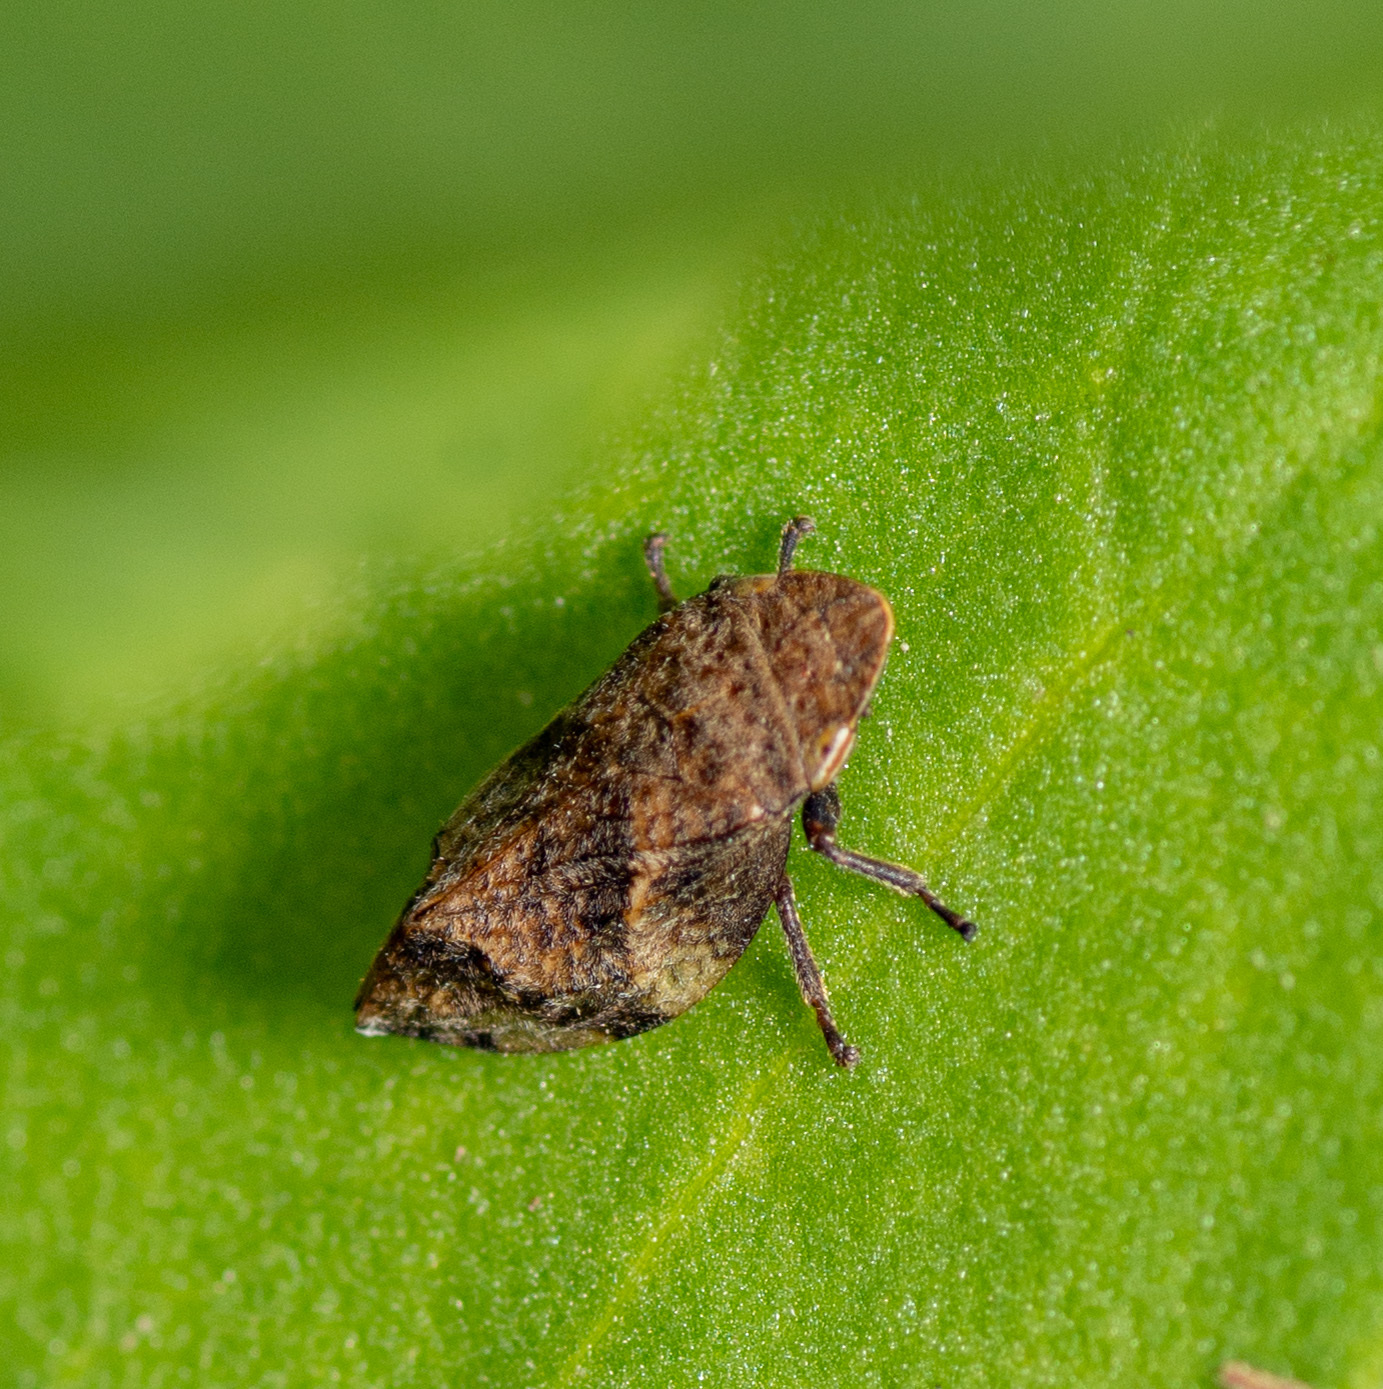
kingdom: Animalia
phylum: Arthropoda
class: Insecta
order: Hemiptera
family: Aphrophoridae
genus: Lepyronia
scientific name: Lepyronia quadrangularis
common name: Diamond-backed spittlebug
